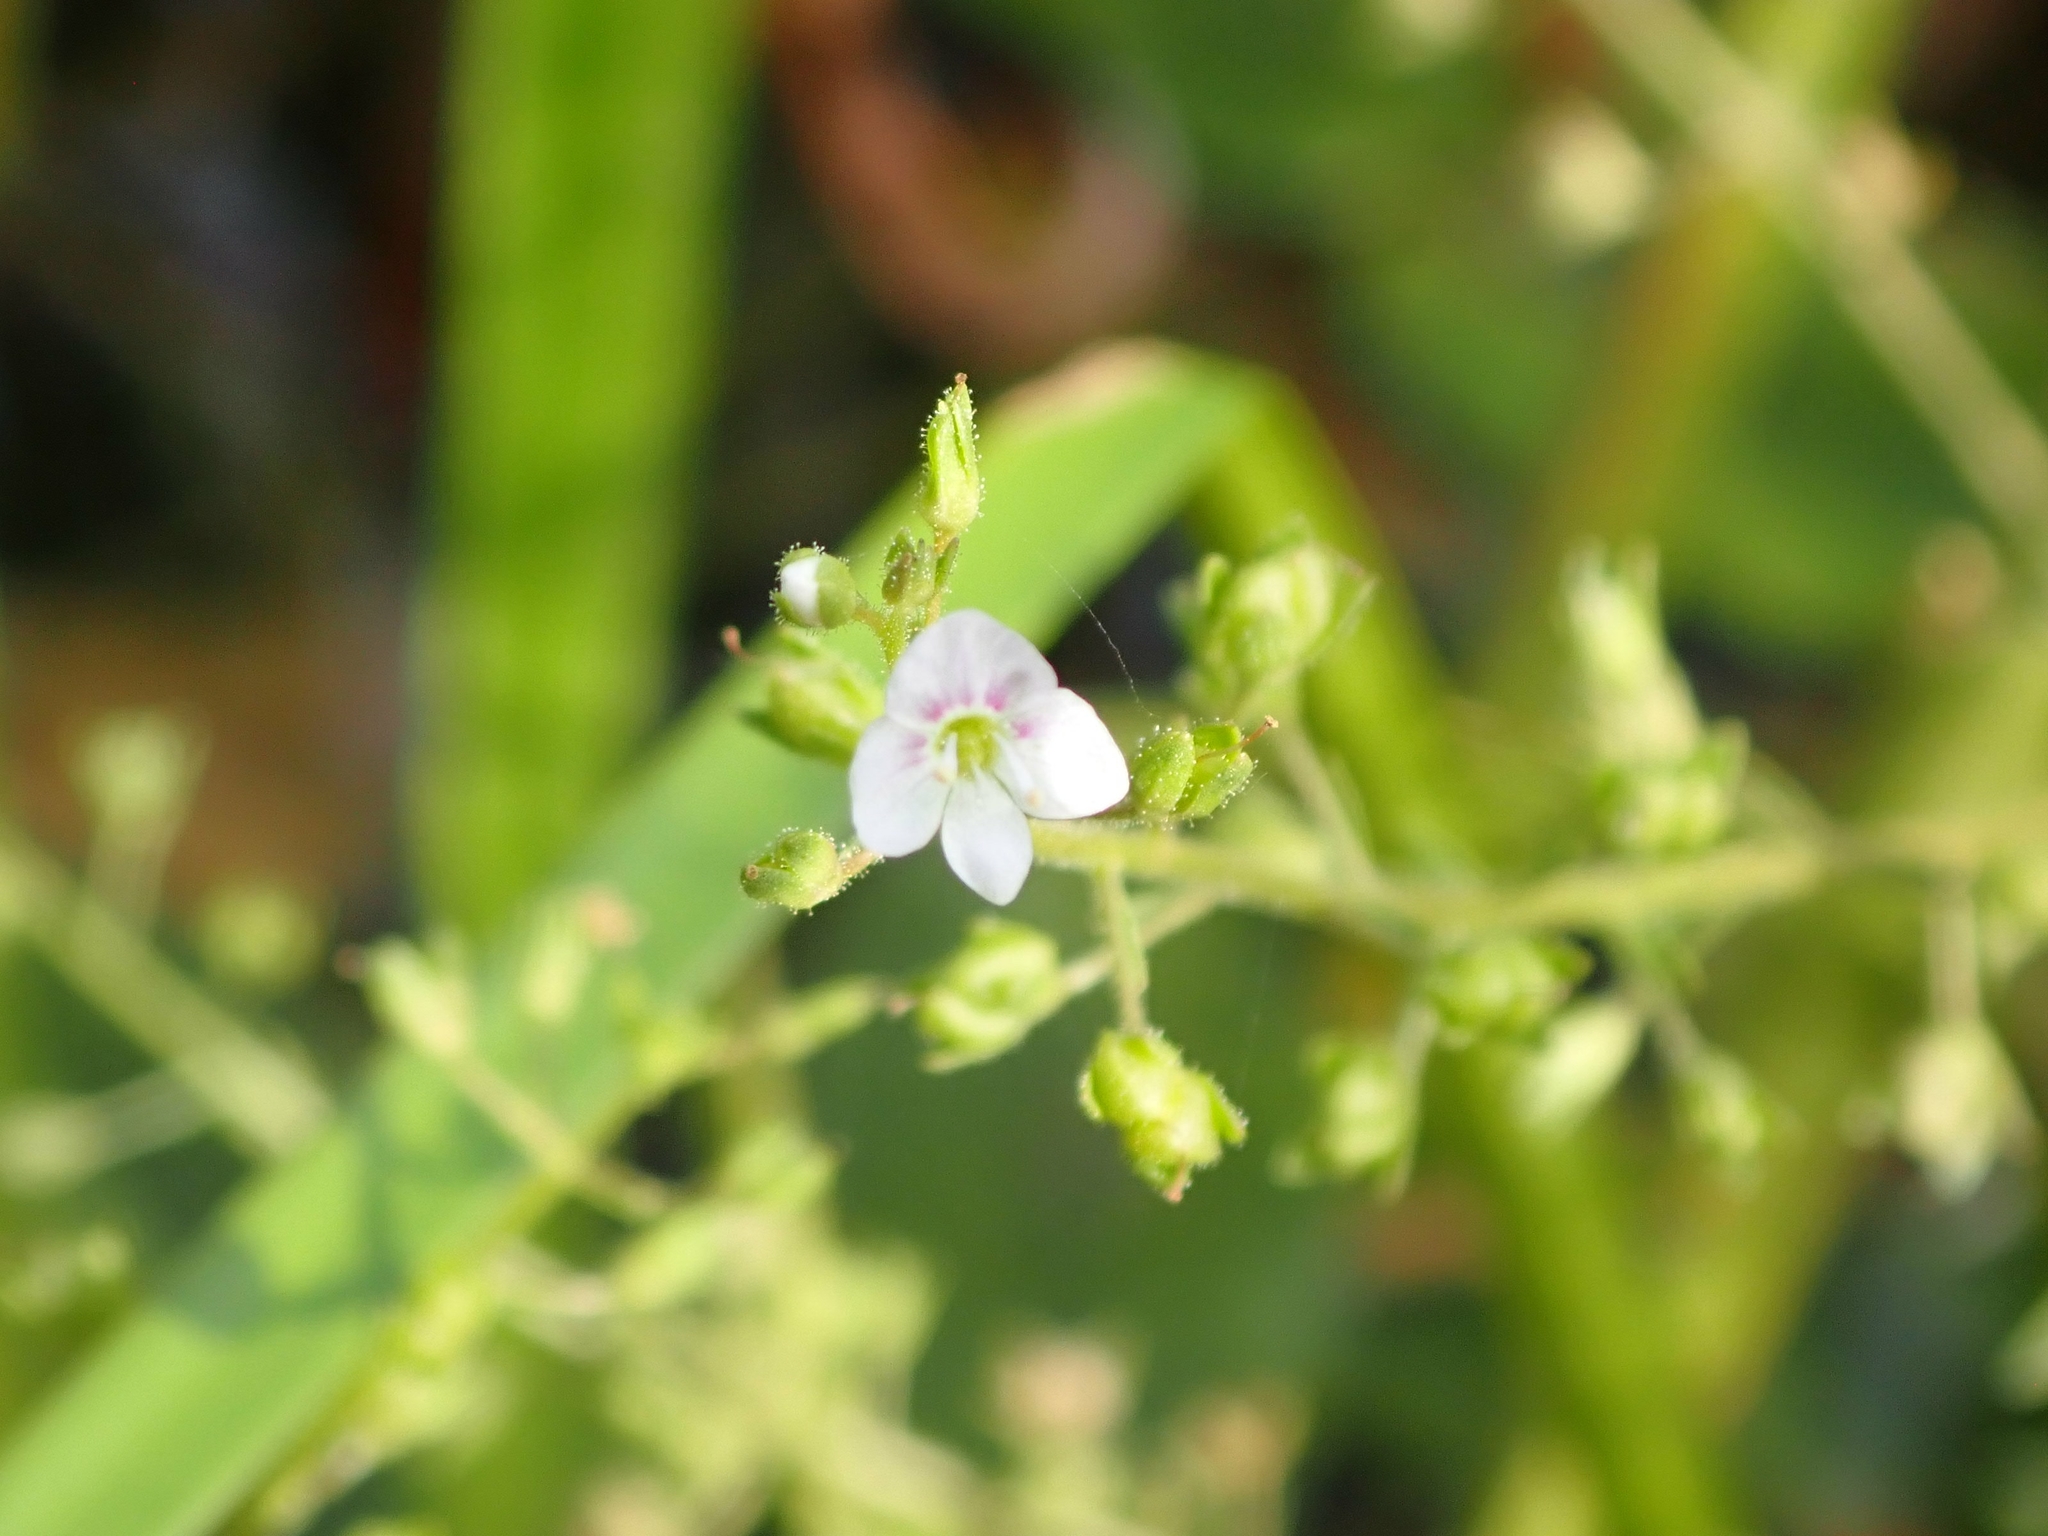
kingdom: Plantae
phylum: Tracheophyta
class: Magnoliopsida
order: Lamiales
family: Plantaginaceae
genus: Veronica
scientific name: Veronica catenata
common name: Pink water-speedwell
